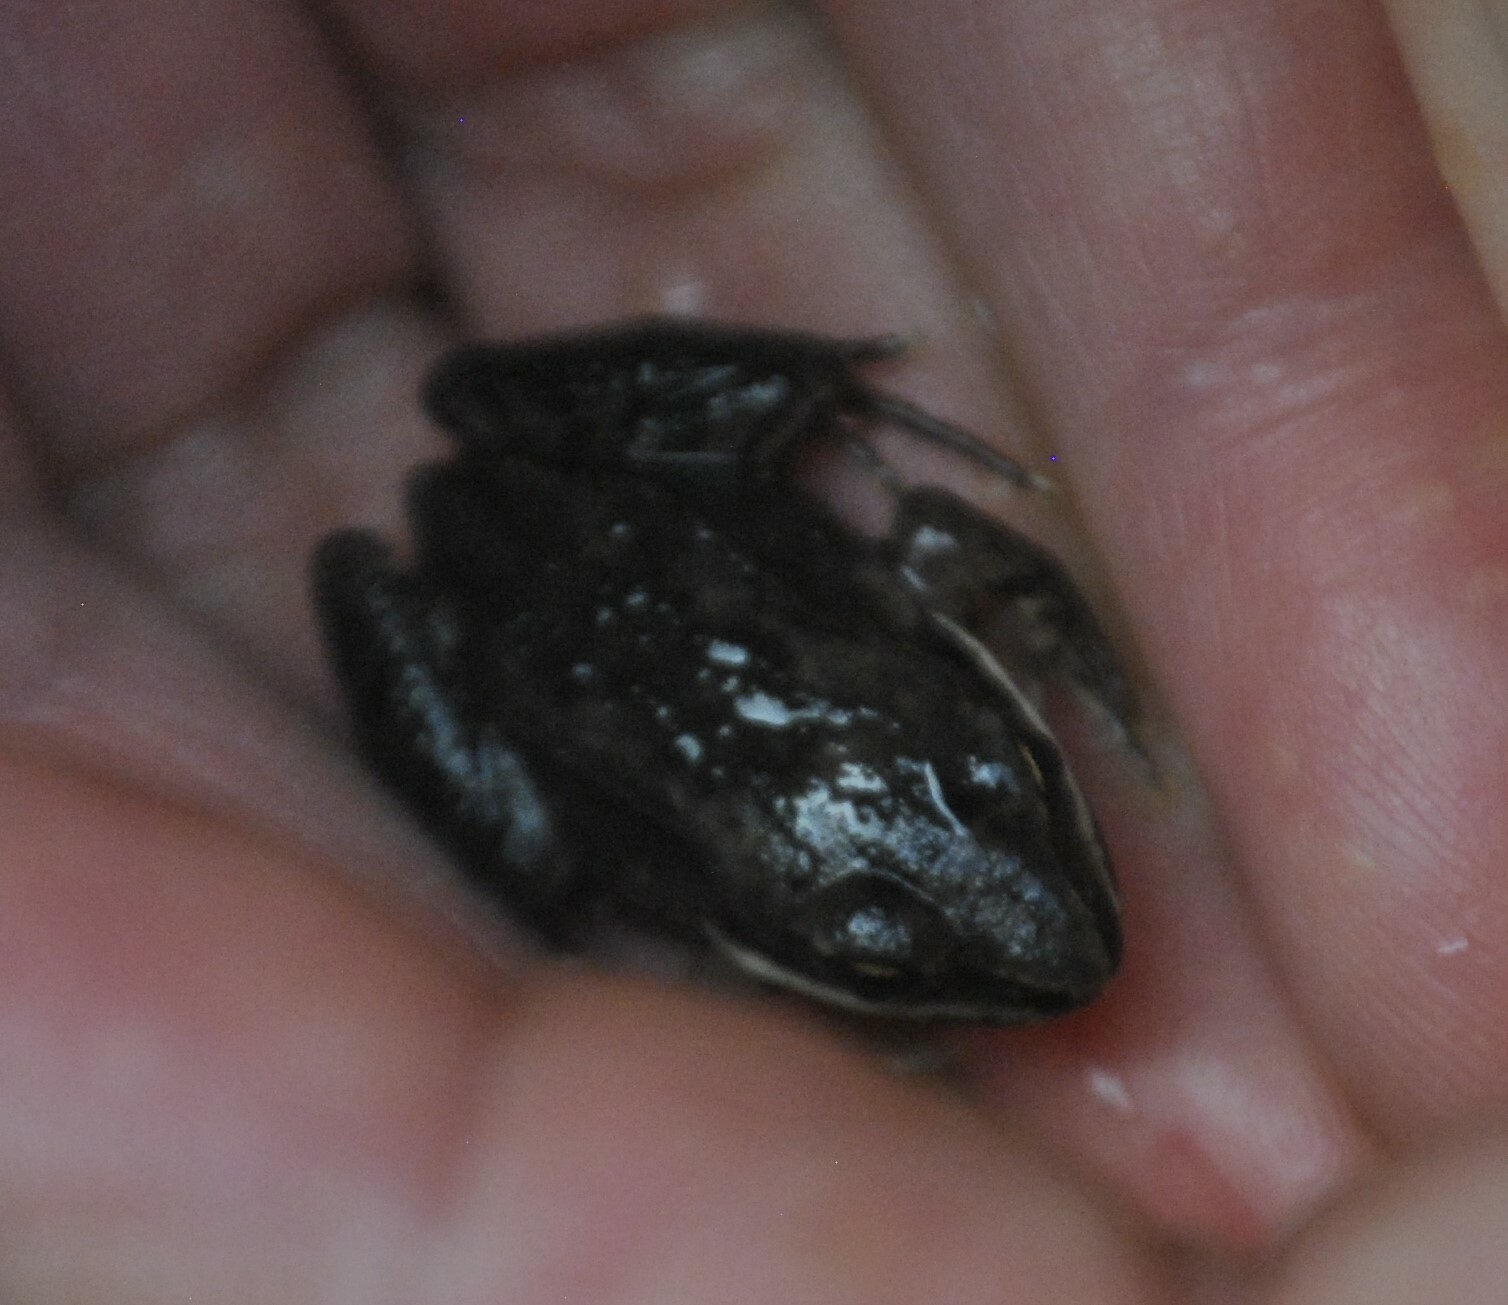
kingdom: Animalia
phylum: Chordata
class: Amphibia
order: Anura
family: Ranidae
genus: Lithobates
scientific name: Lithobates sylvaticus
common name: Wood frog
